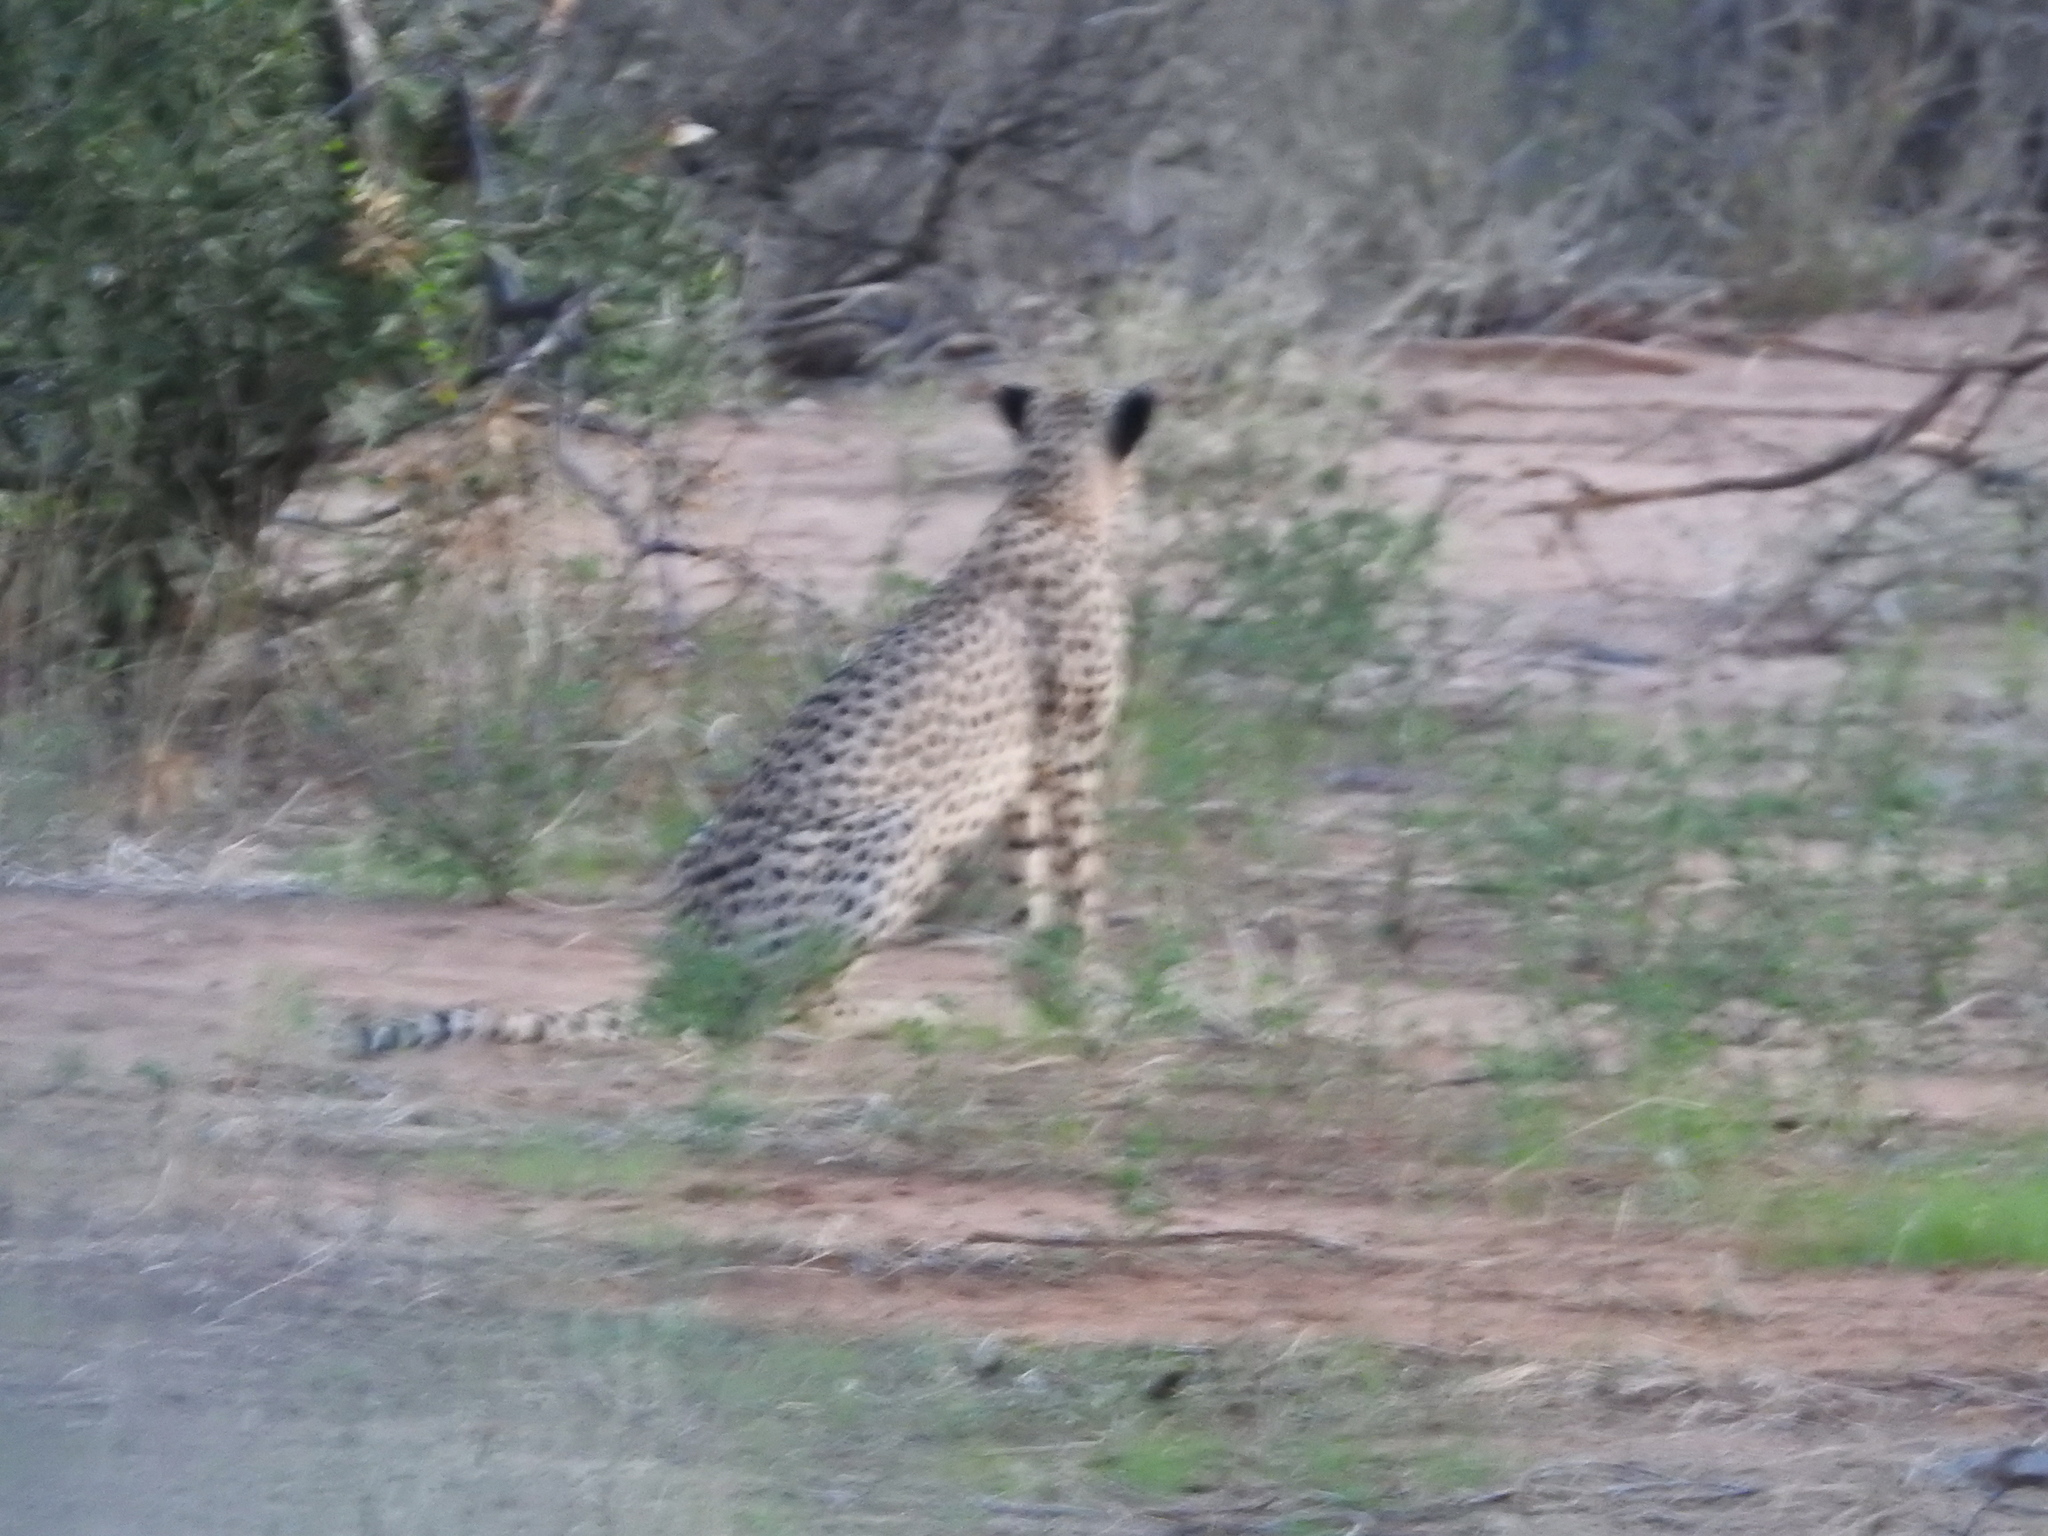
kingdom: Animalia
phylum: Chordata
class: Mammalia
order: Carnivora
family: Felidae
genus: Acinonyx
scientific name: Acinonyx jubatus
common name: Cheetah
